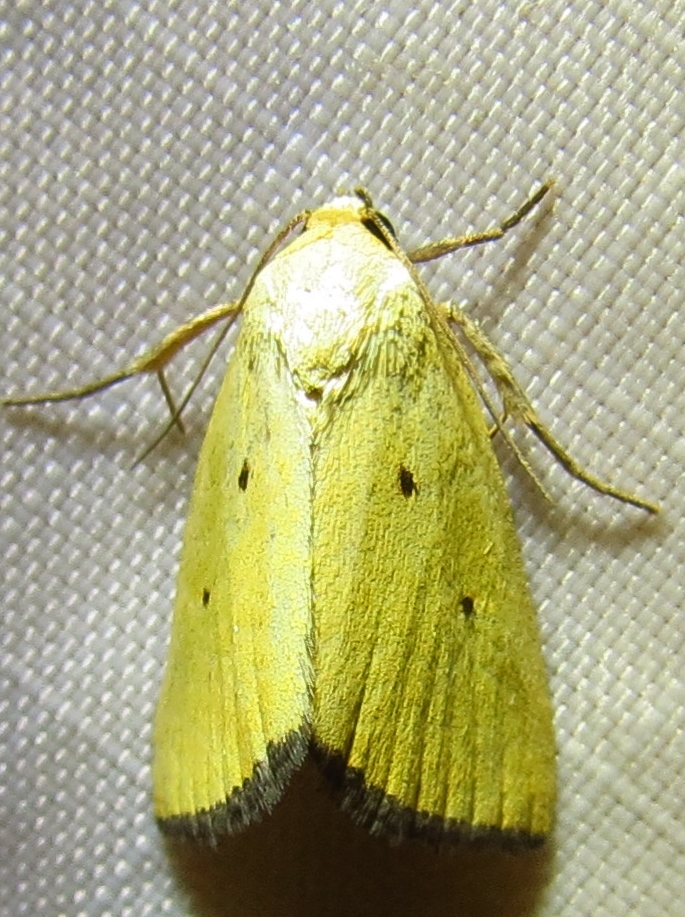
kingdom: Animalia
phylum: Arthropoda
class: Insecta
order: Lepidoptera
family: Noctuidae
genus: Marimatha
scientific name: Marimatha nigrofimbria
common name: Black-bordered lemon moth
